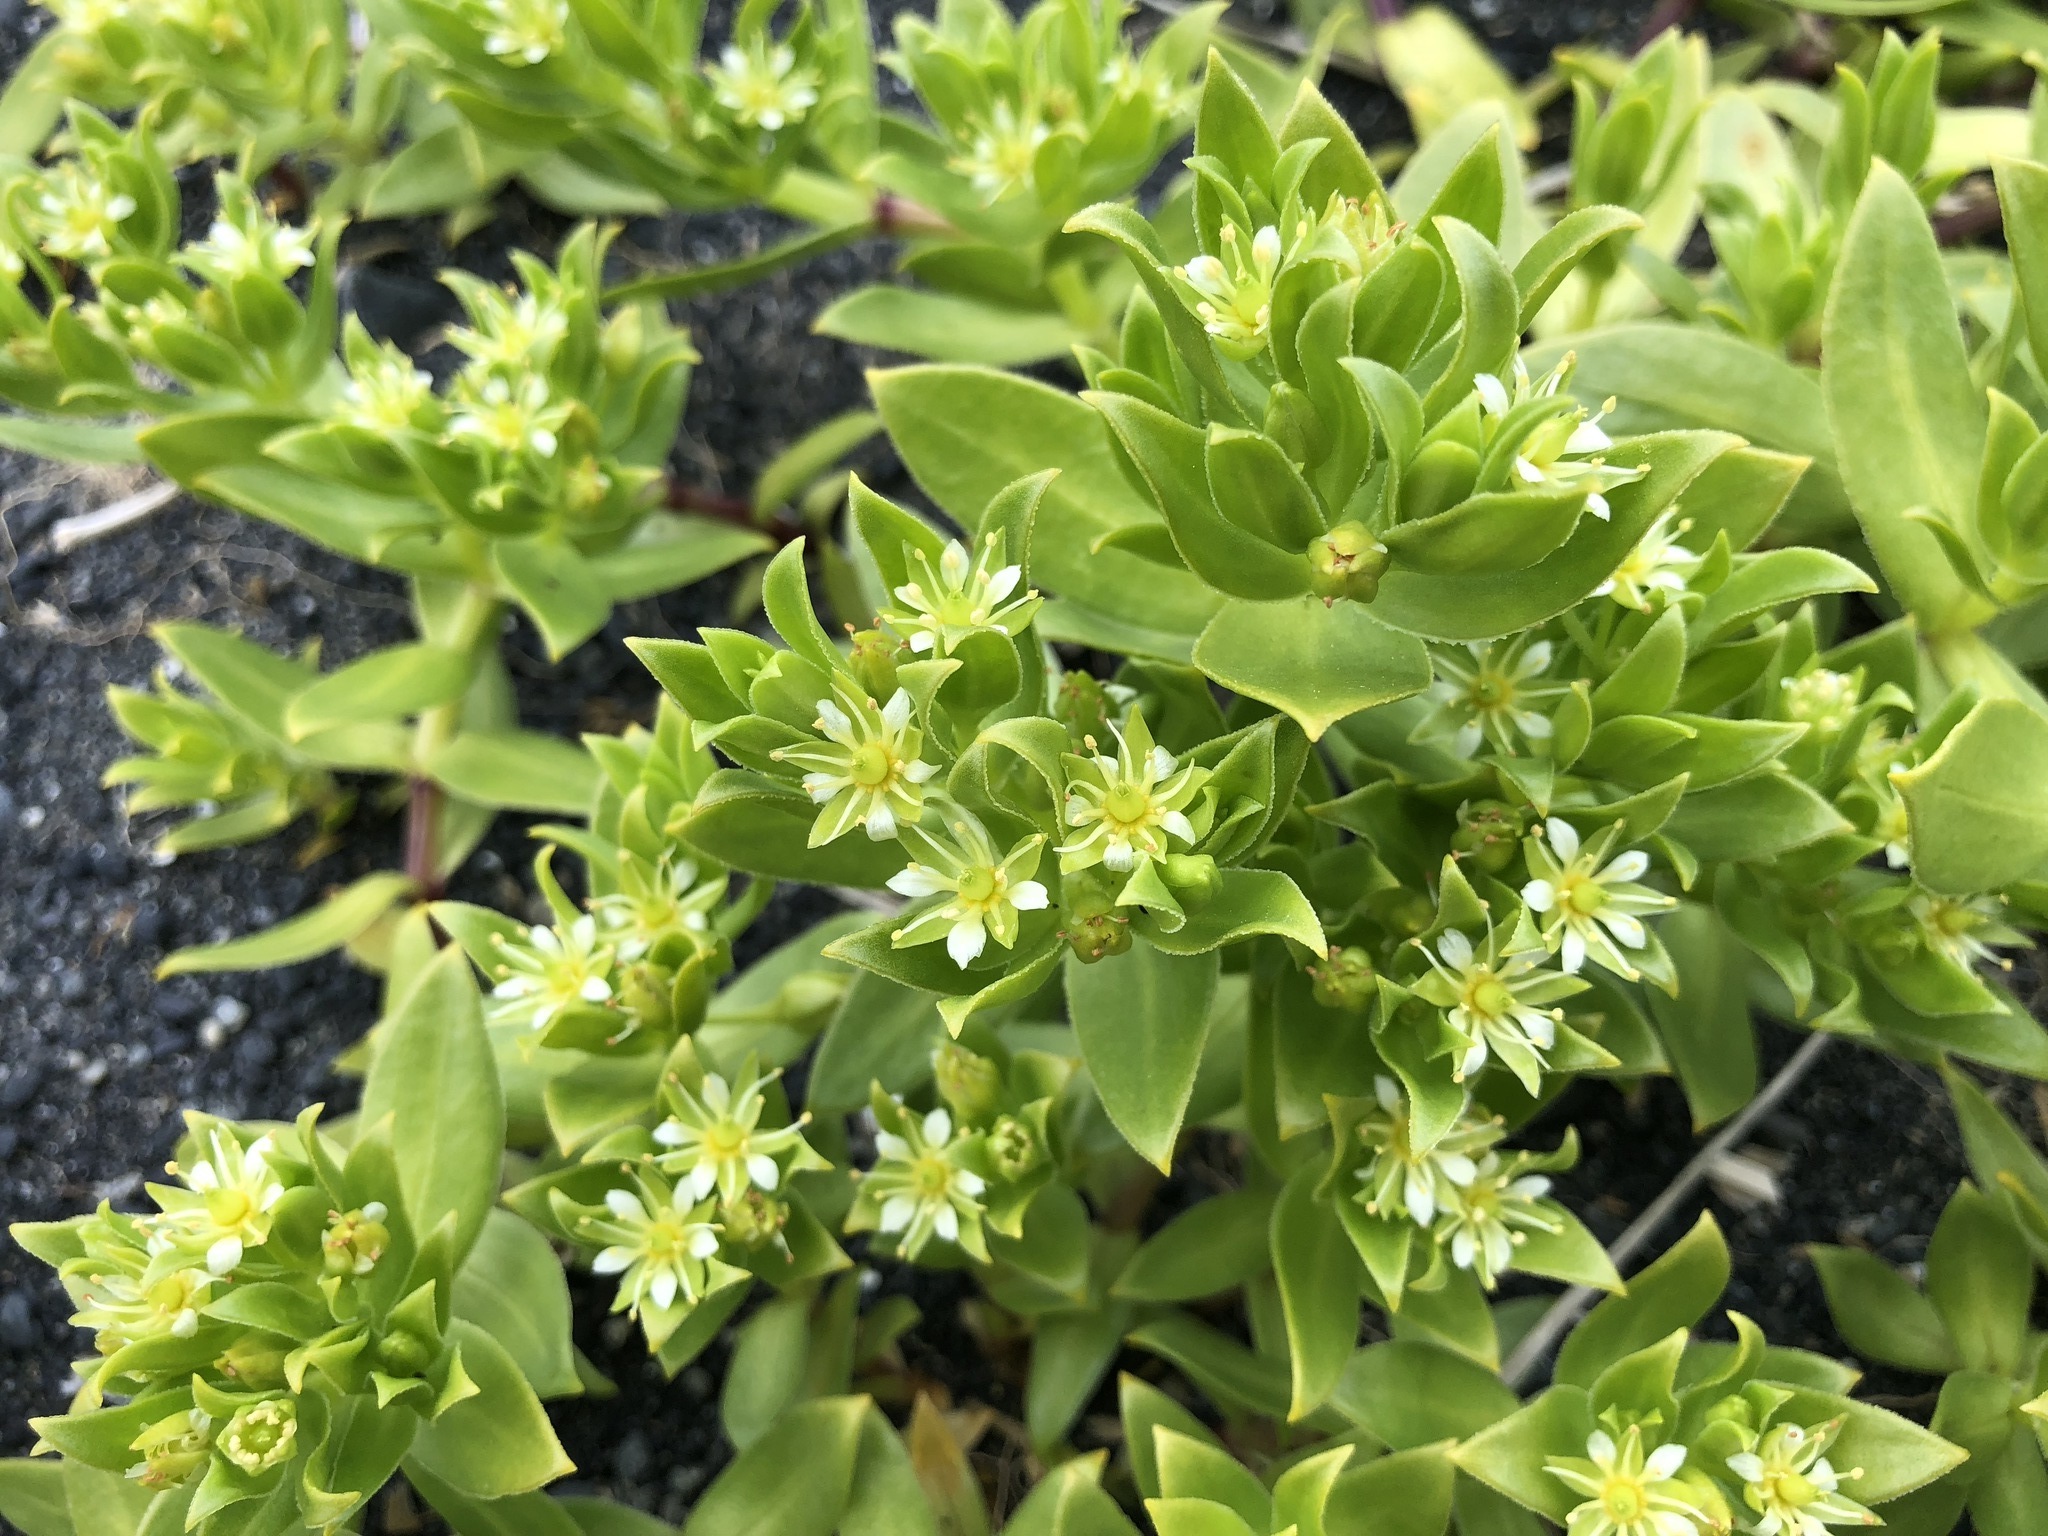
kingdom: Plantae
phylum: Tracheophyta
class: Magnoliopsida
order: Caryophyllales
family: Caryophyllaceae
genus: Honckenya
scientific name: Honckenya peploides
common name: Sea sandwort
